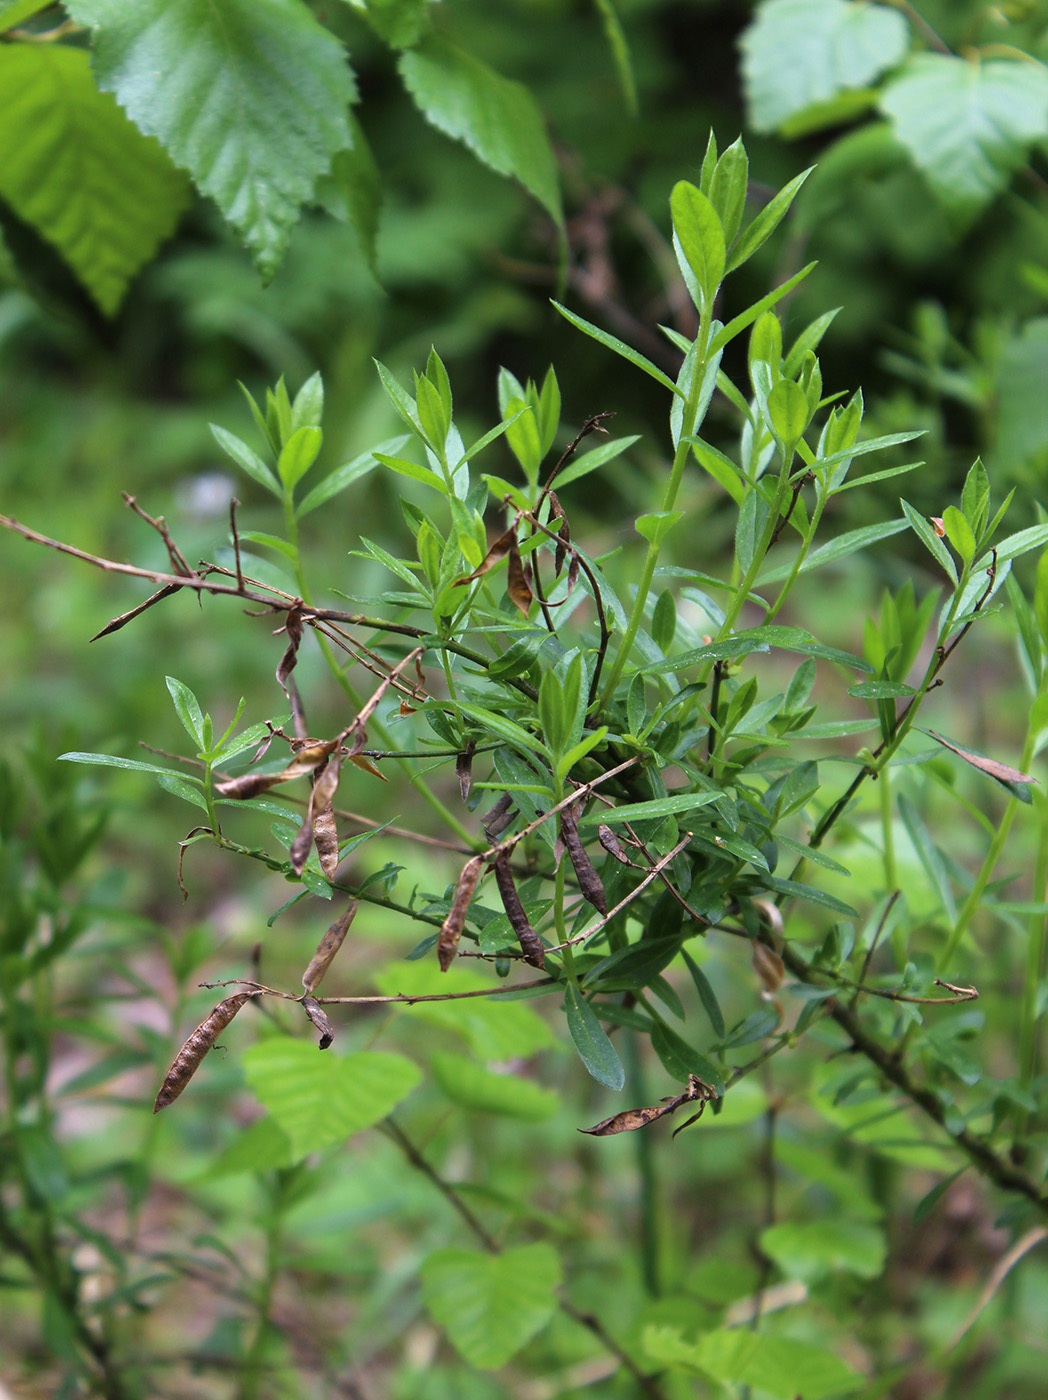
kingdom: Plantae
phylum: Tracheophyta
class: Magnoliopsida
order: Fabales
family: Fabaceae
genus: Genista
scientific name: Genista tinctoria
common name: Dyer's greenweed
